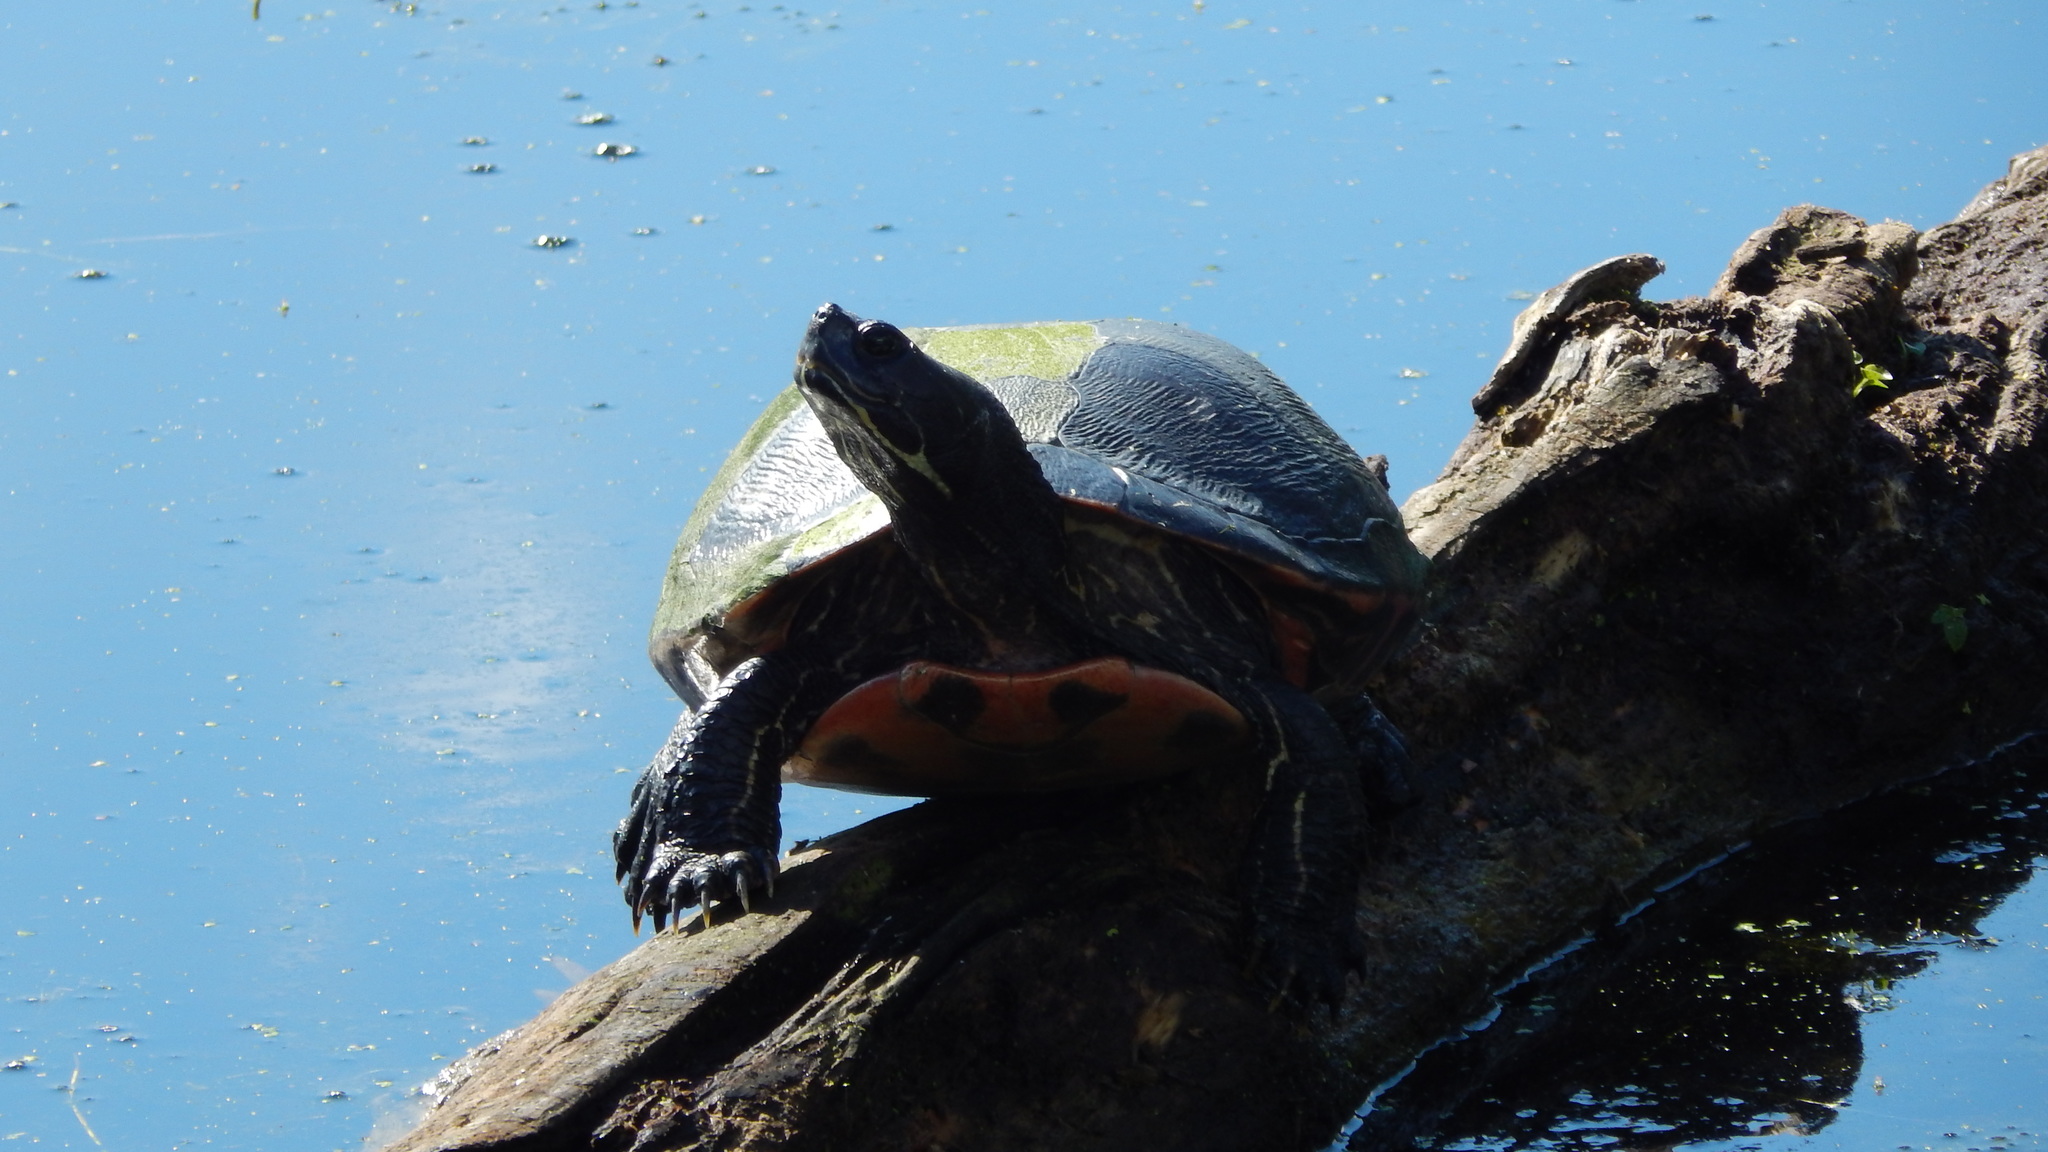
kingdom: Animalia
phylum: Chordata
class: Testudines
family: Emydidae
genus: Pseudemys
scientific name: Pseudemys rubriventris
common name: American red-bellied turtle
